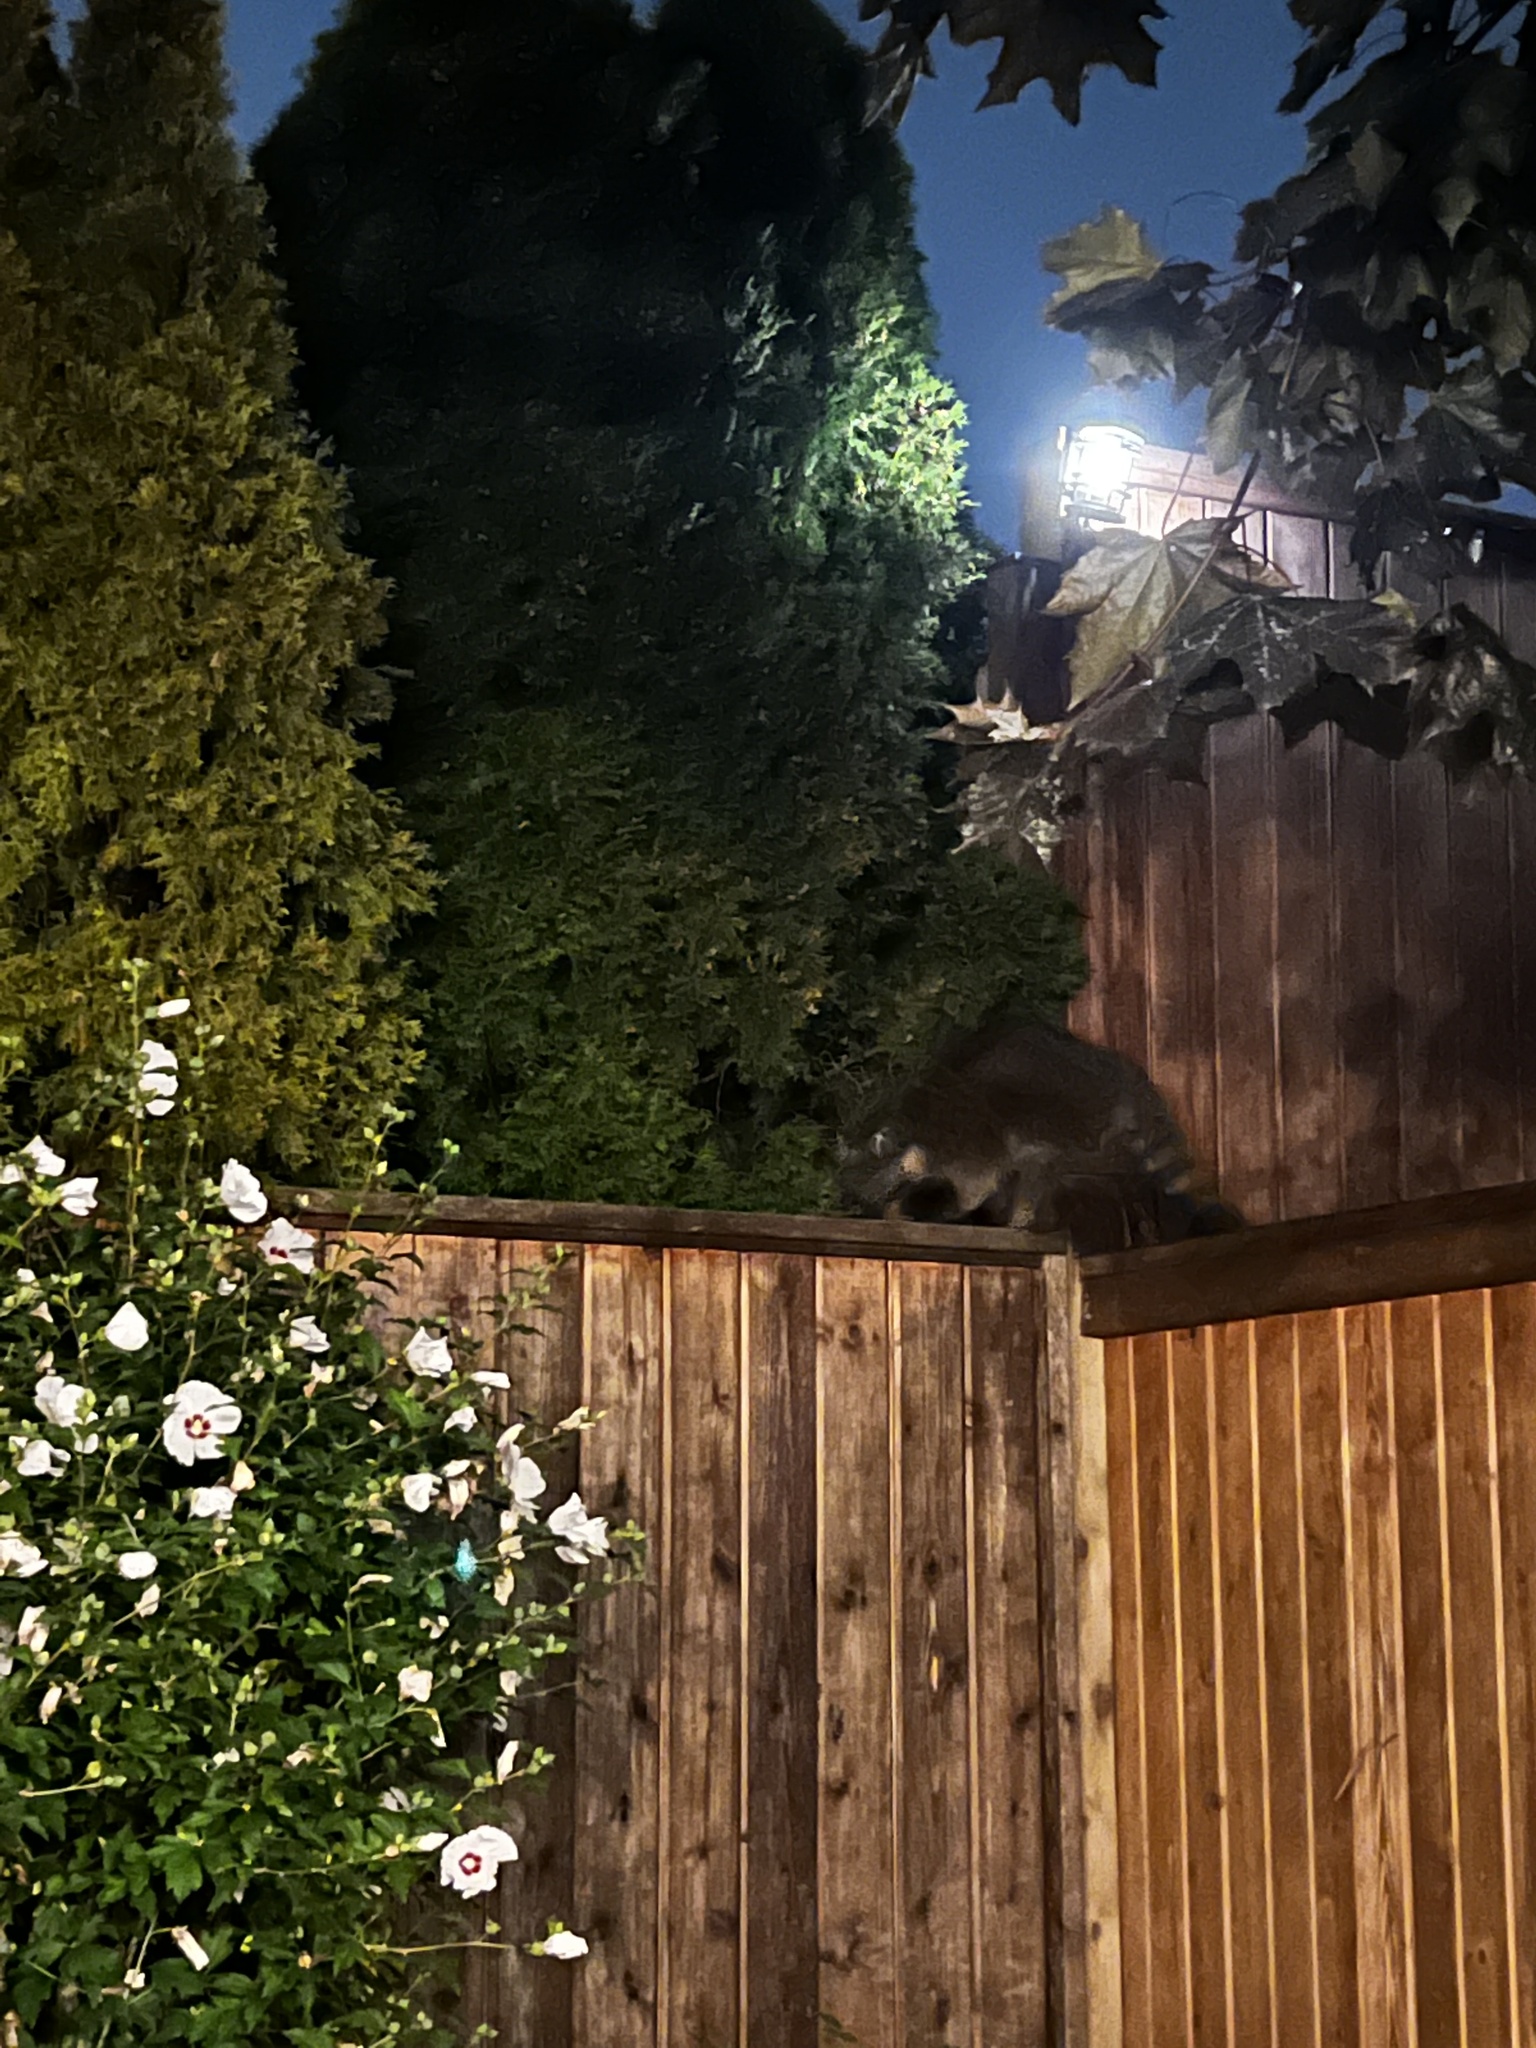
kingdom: Animalia
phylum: Chordata
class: Mammalia
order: Carnivora
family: Procyonidae
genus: Procyon
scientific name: Procyon lotor
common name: Raccoon
